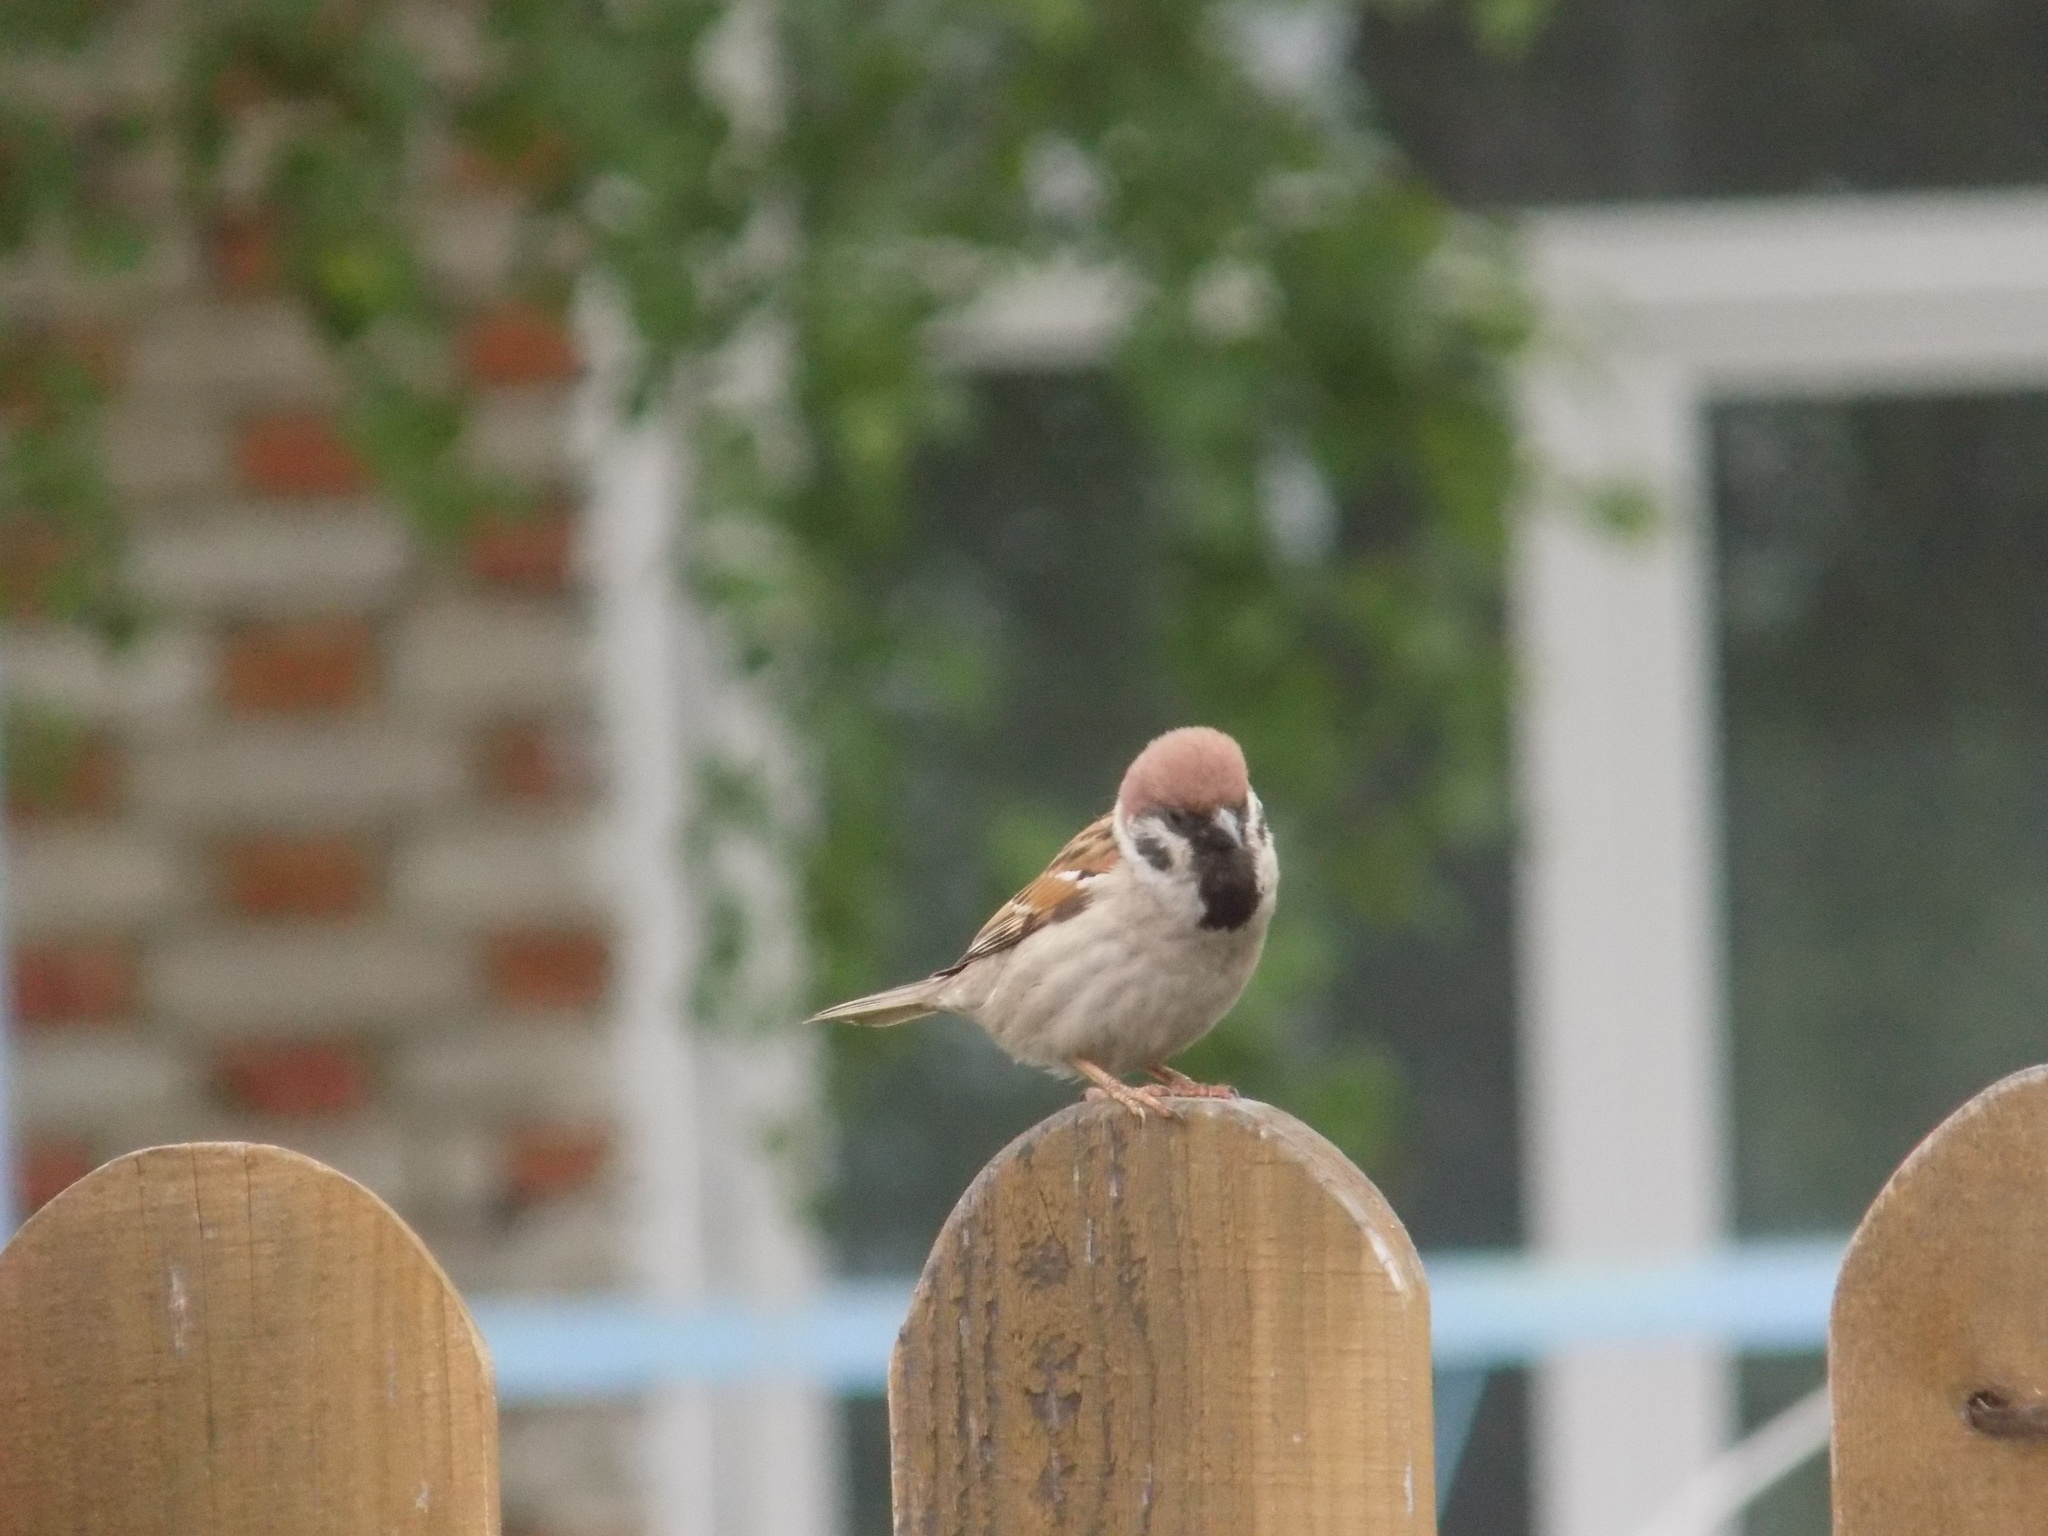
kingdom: Animalia
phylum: Chordata
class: Aves
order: Passeriformes
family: Passeridae
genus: Passer
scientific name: Passer montanus
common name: Eurasian tree sparrow
